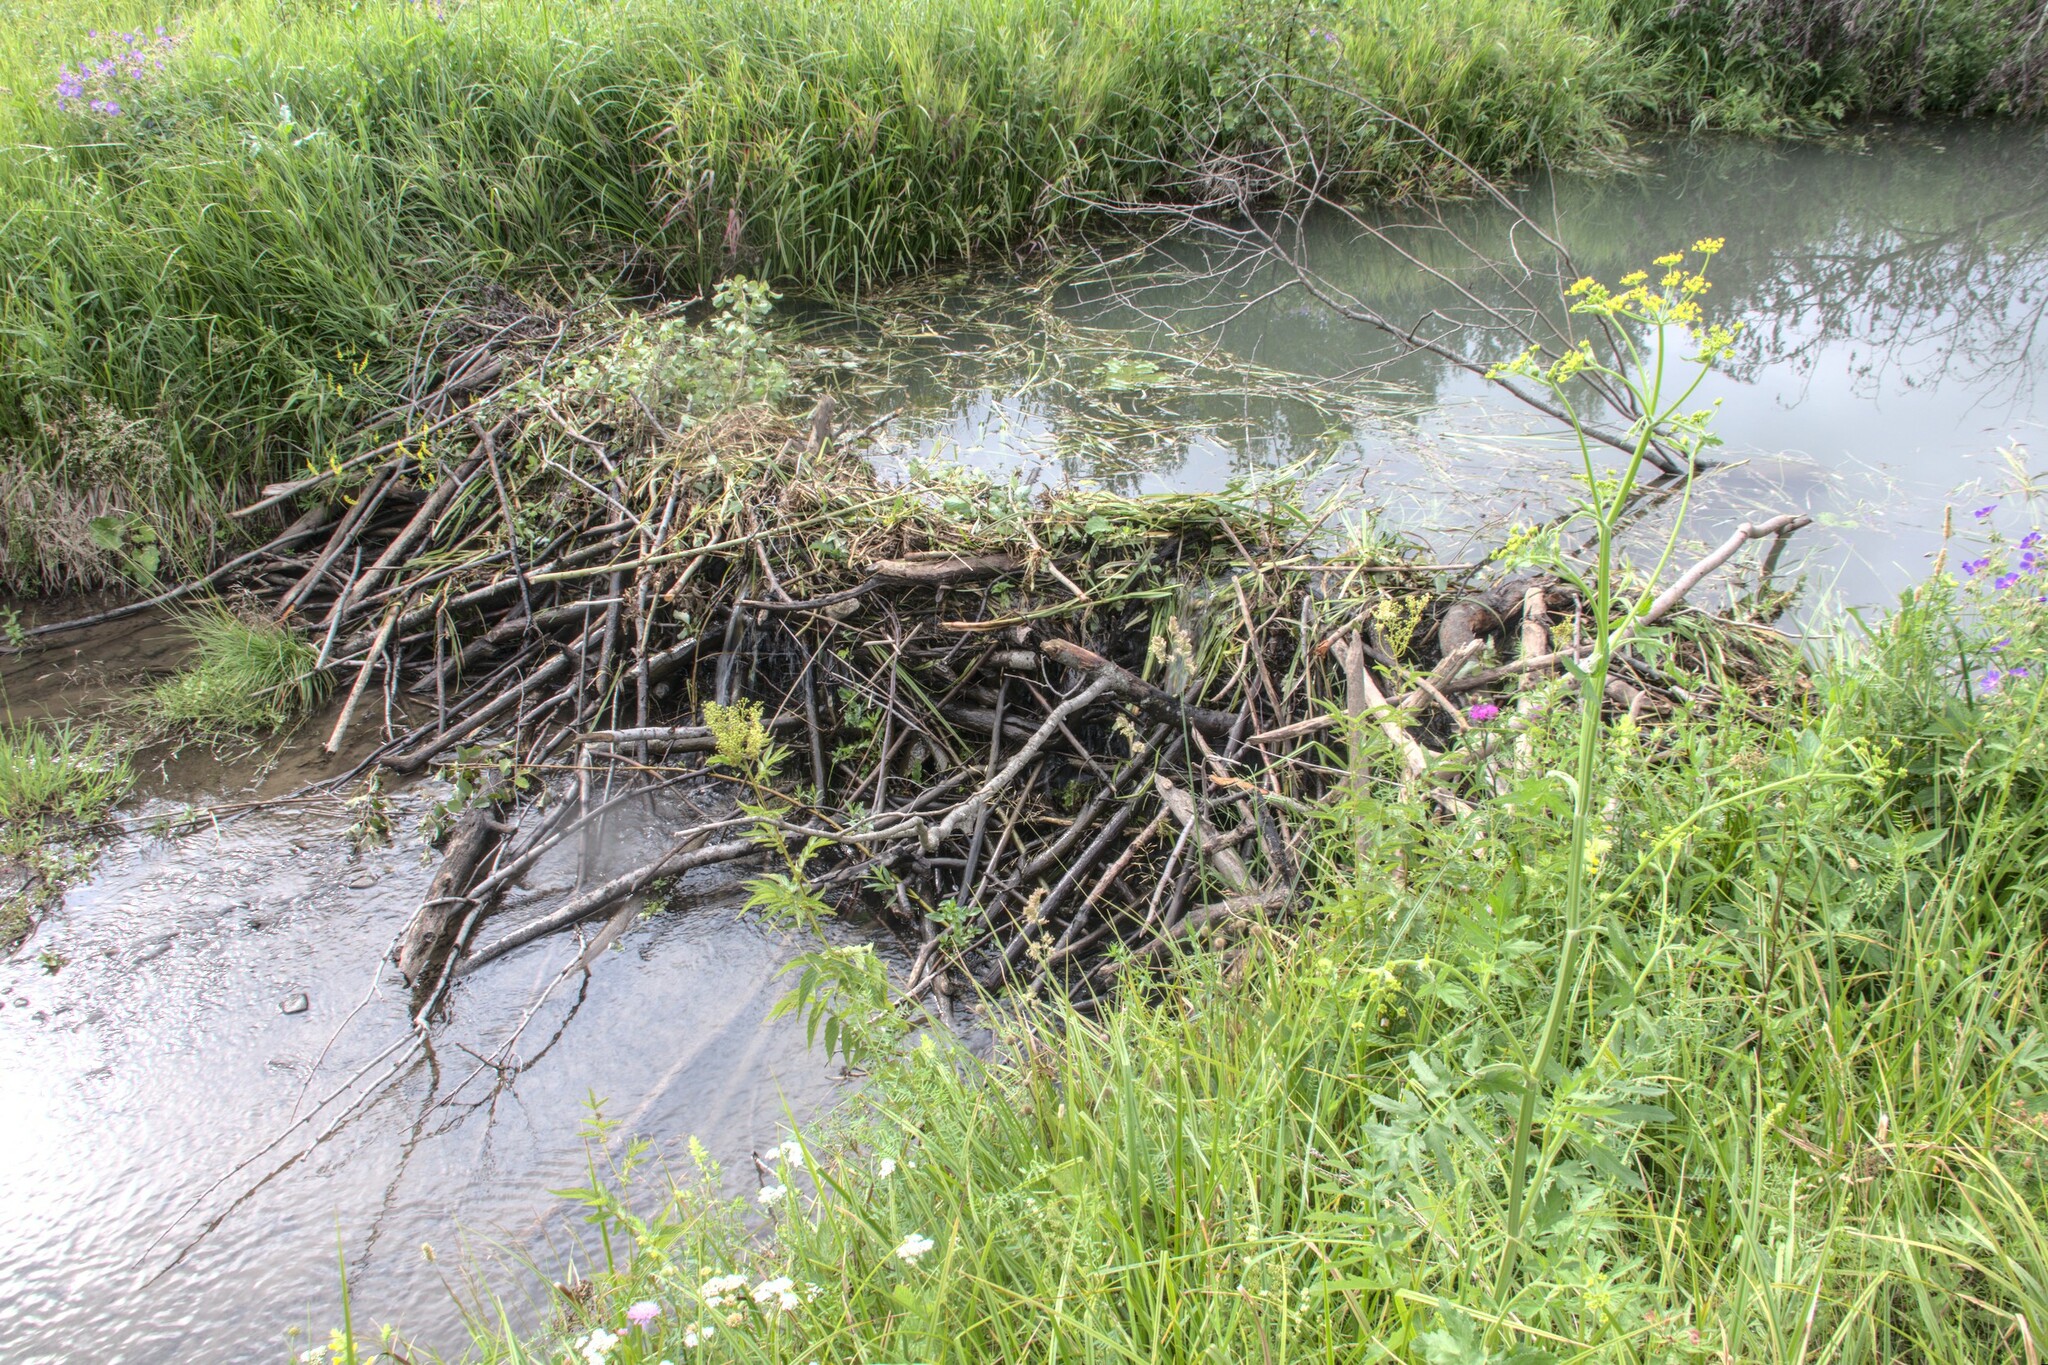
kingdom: Animalia
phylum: Chordata
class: Mammalia
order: Rodentia
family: Castoridae
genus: Castor
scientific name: Castor fiber
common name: Eurasian beaver
